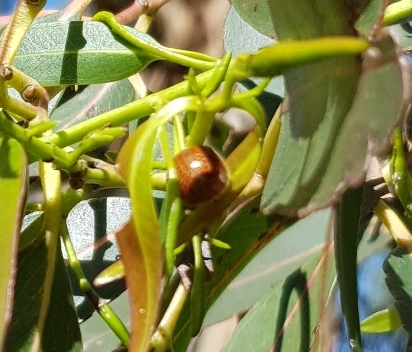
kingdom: Animalia
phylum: Arthropoda
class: Insecta
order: Coleoptera
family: Chrysomelidae
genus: Paropsisterna
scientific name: Paropsisterna cloelia
